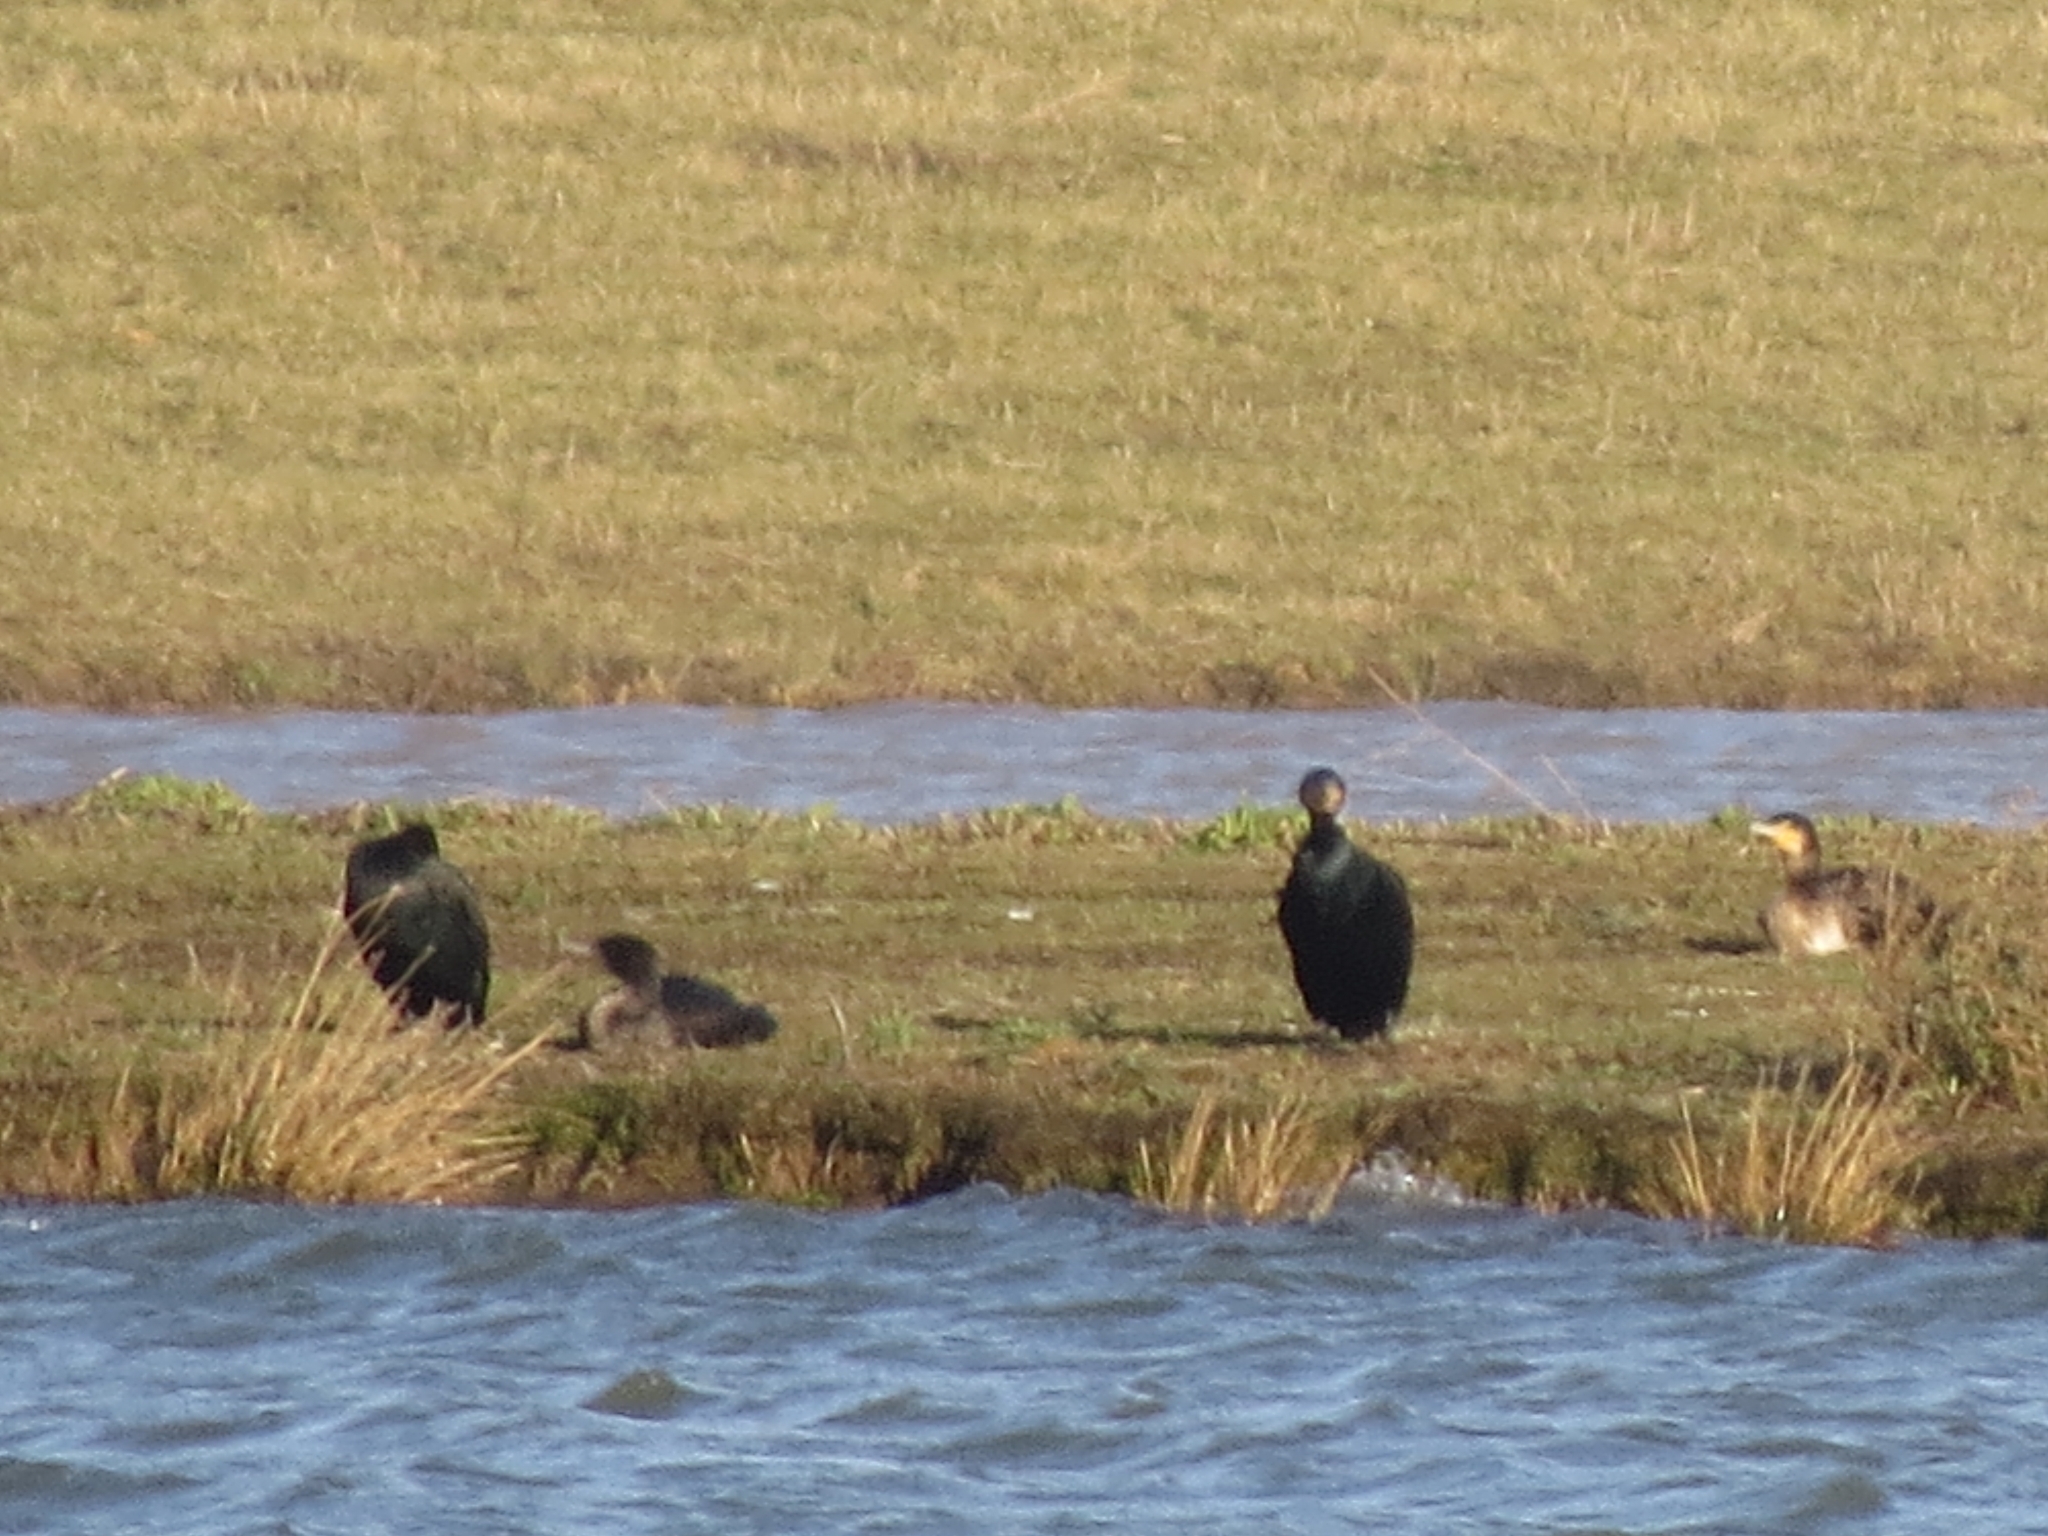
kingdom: Animalia
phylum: Chordata
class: Aves
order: Suliformes
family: Phalacrocoracidae
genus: Phalacrocorax
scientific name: Phalacrocorax carbo
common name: Great cormorant
